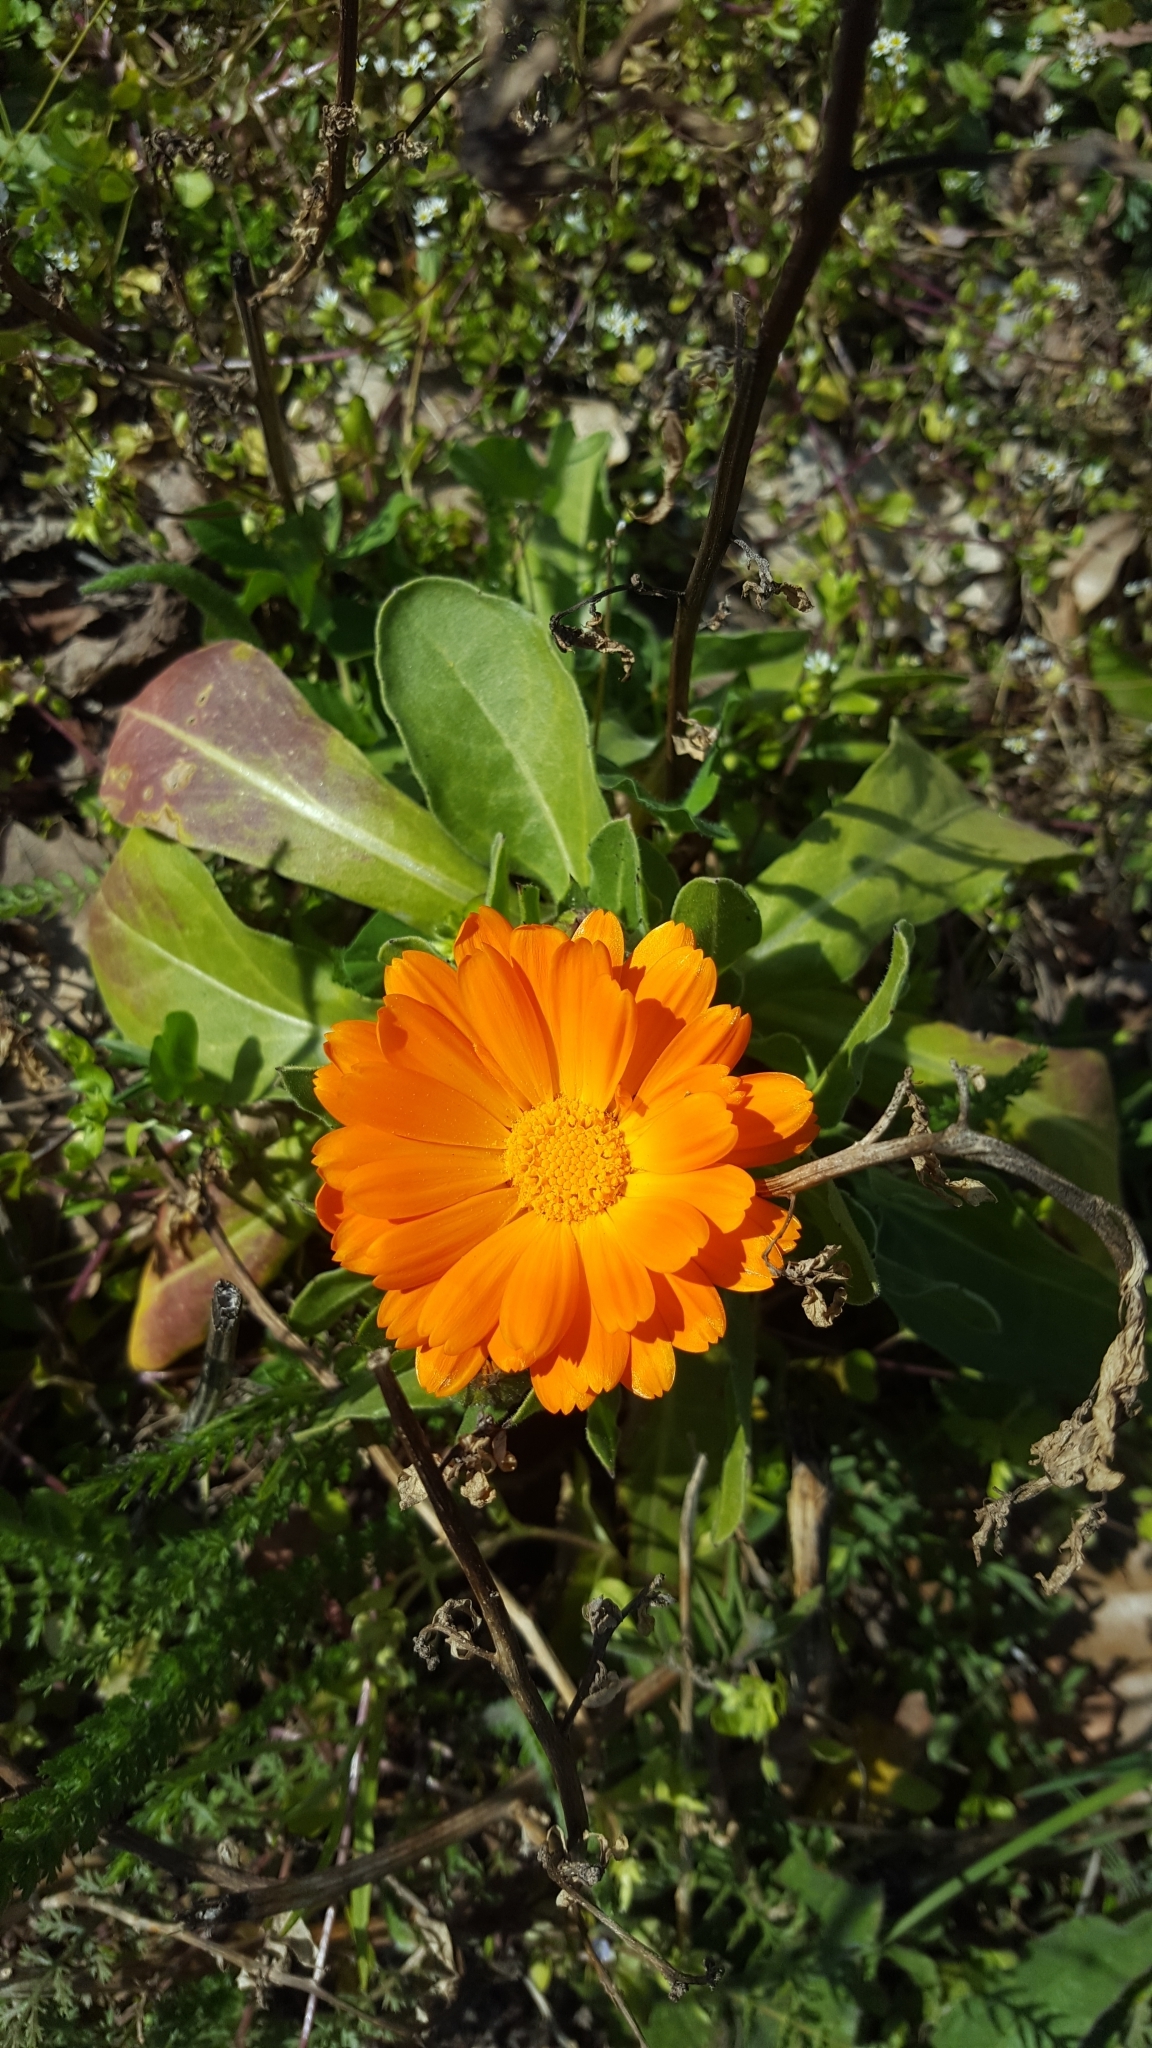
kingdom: Plantae
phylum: Tracheophyta
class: Magnoliopsida
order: Asterales
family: Asteraceae
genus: Calendula
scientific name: Calendula officinalis
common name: Pot marigold
